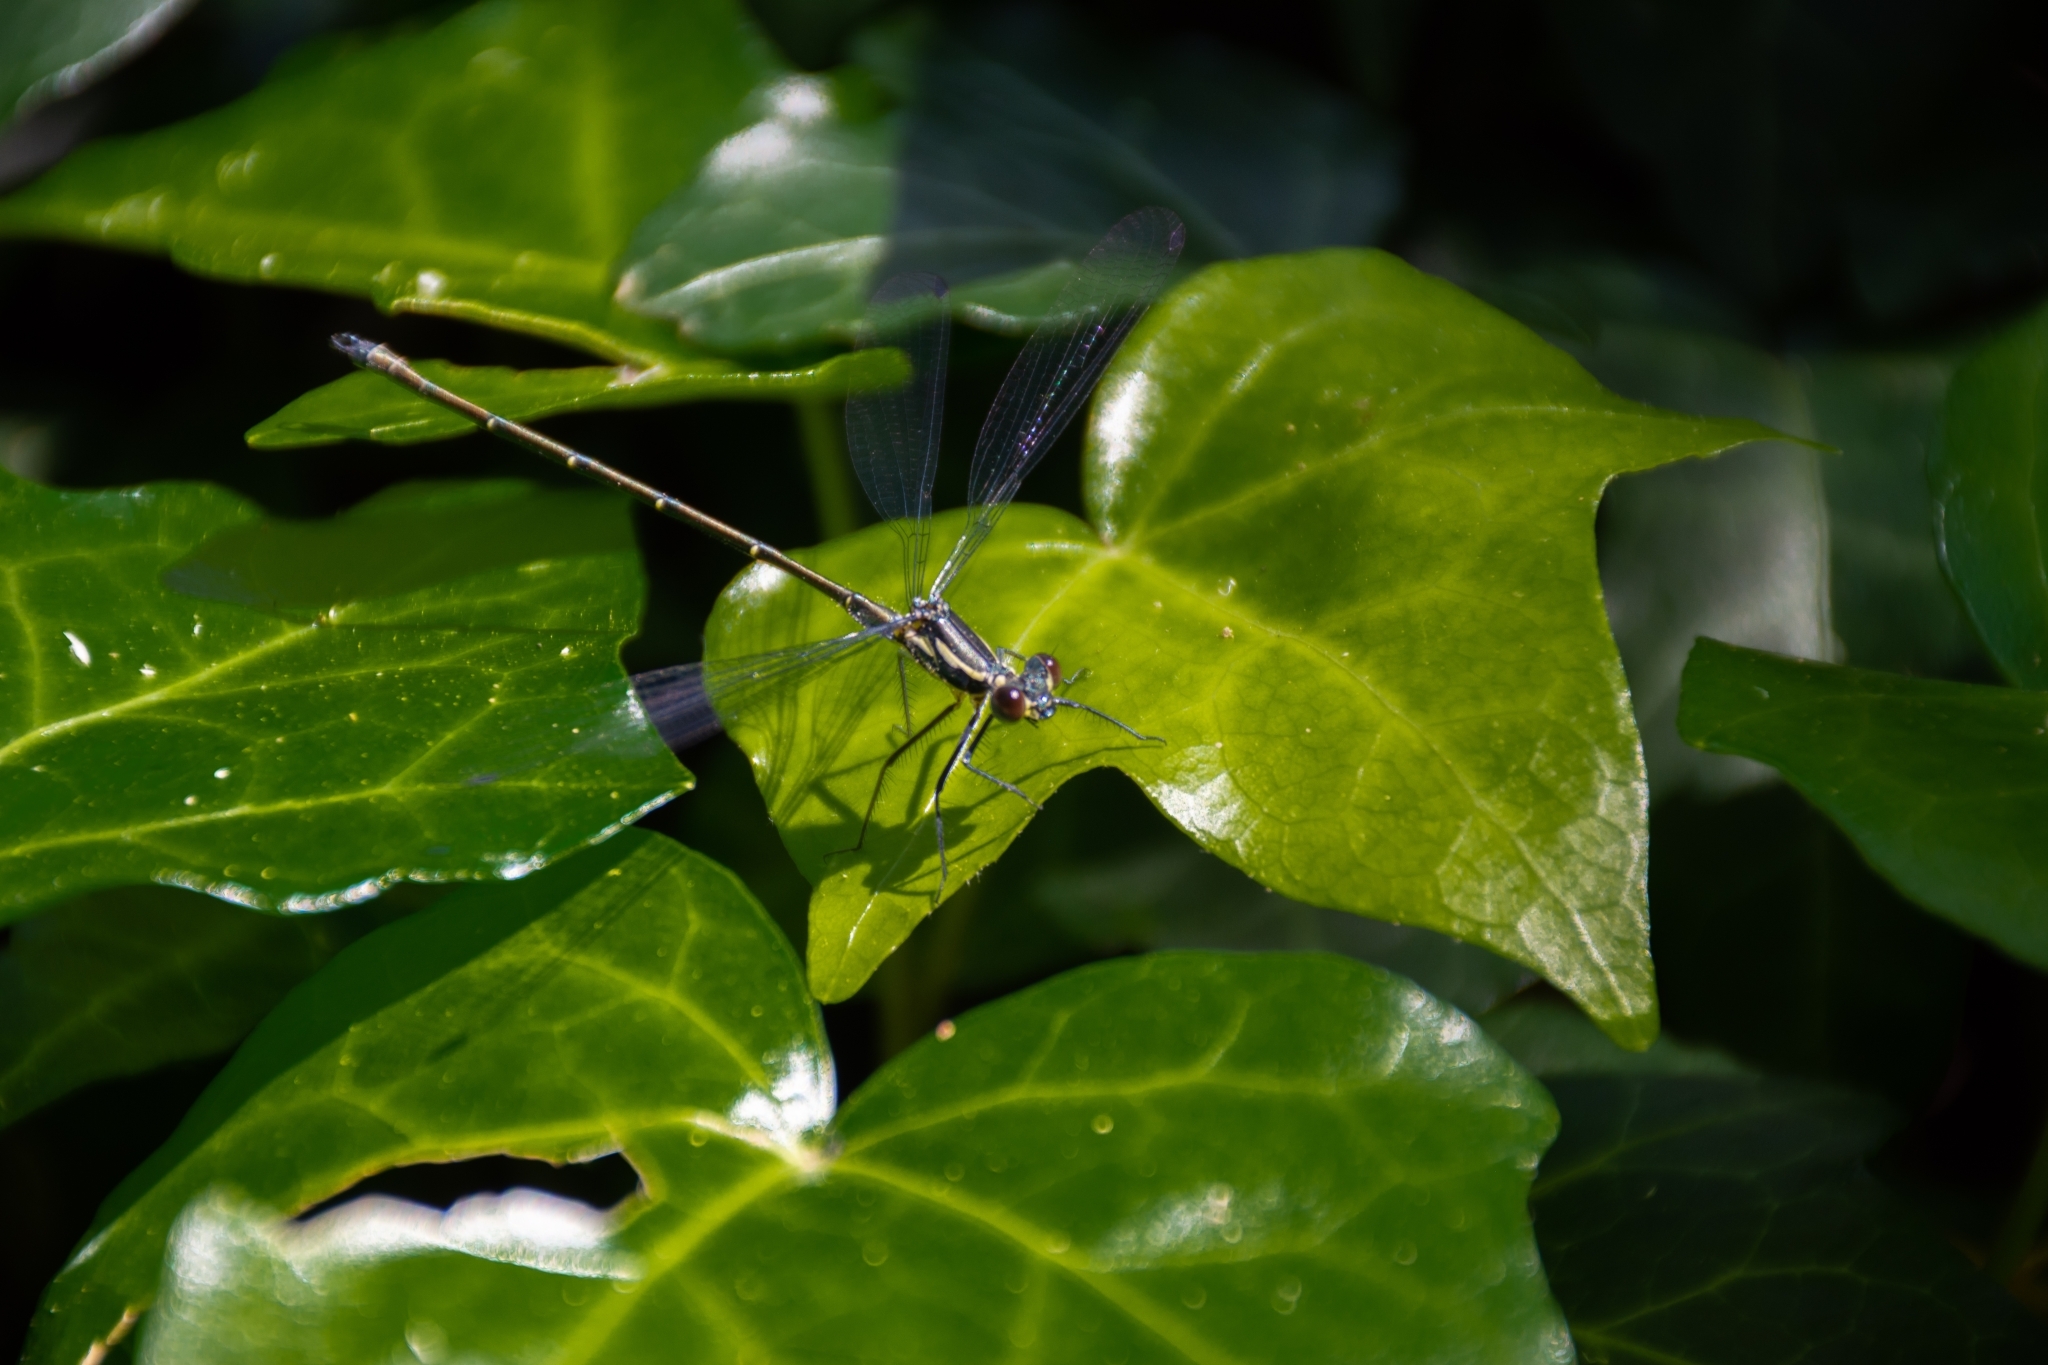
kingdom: Animalia
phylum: Arthropoda
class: Insecta
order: Odonata
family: Argiolestidae
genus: Austroargiolestes
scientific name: Austroargiolestes icteromelas
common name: Common flatwing
